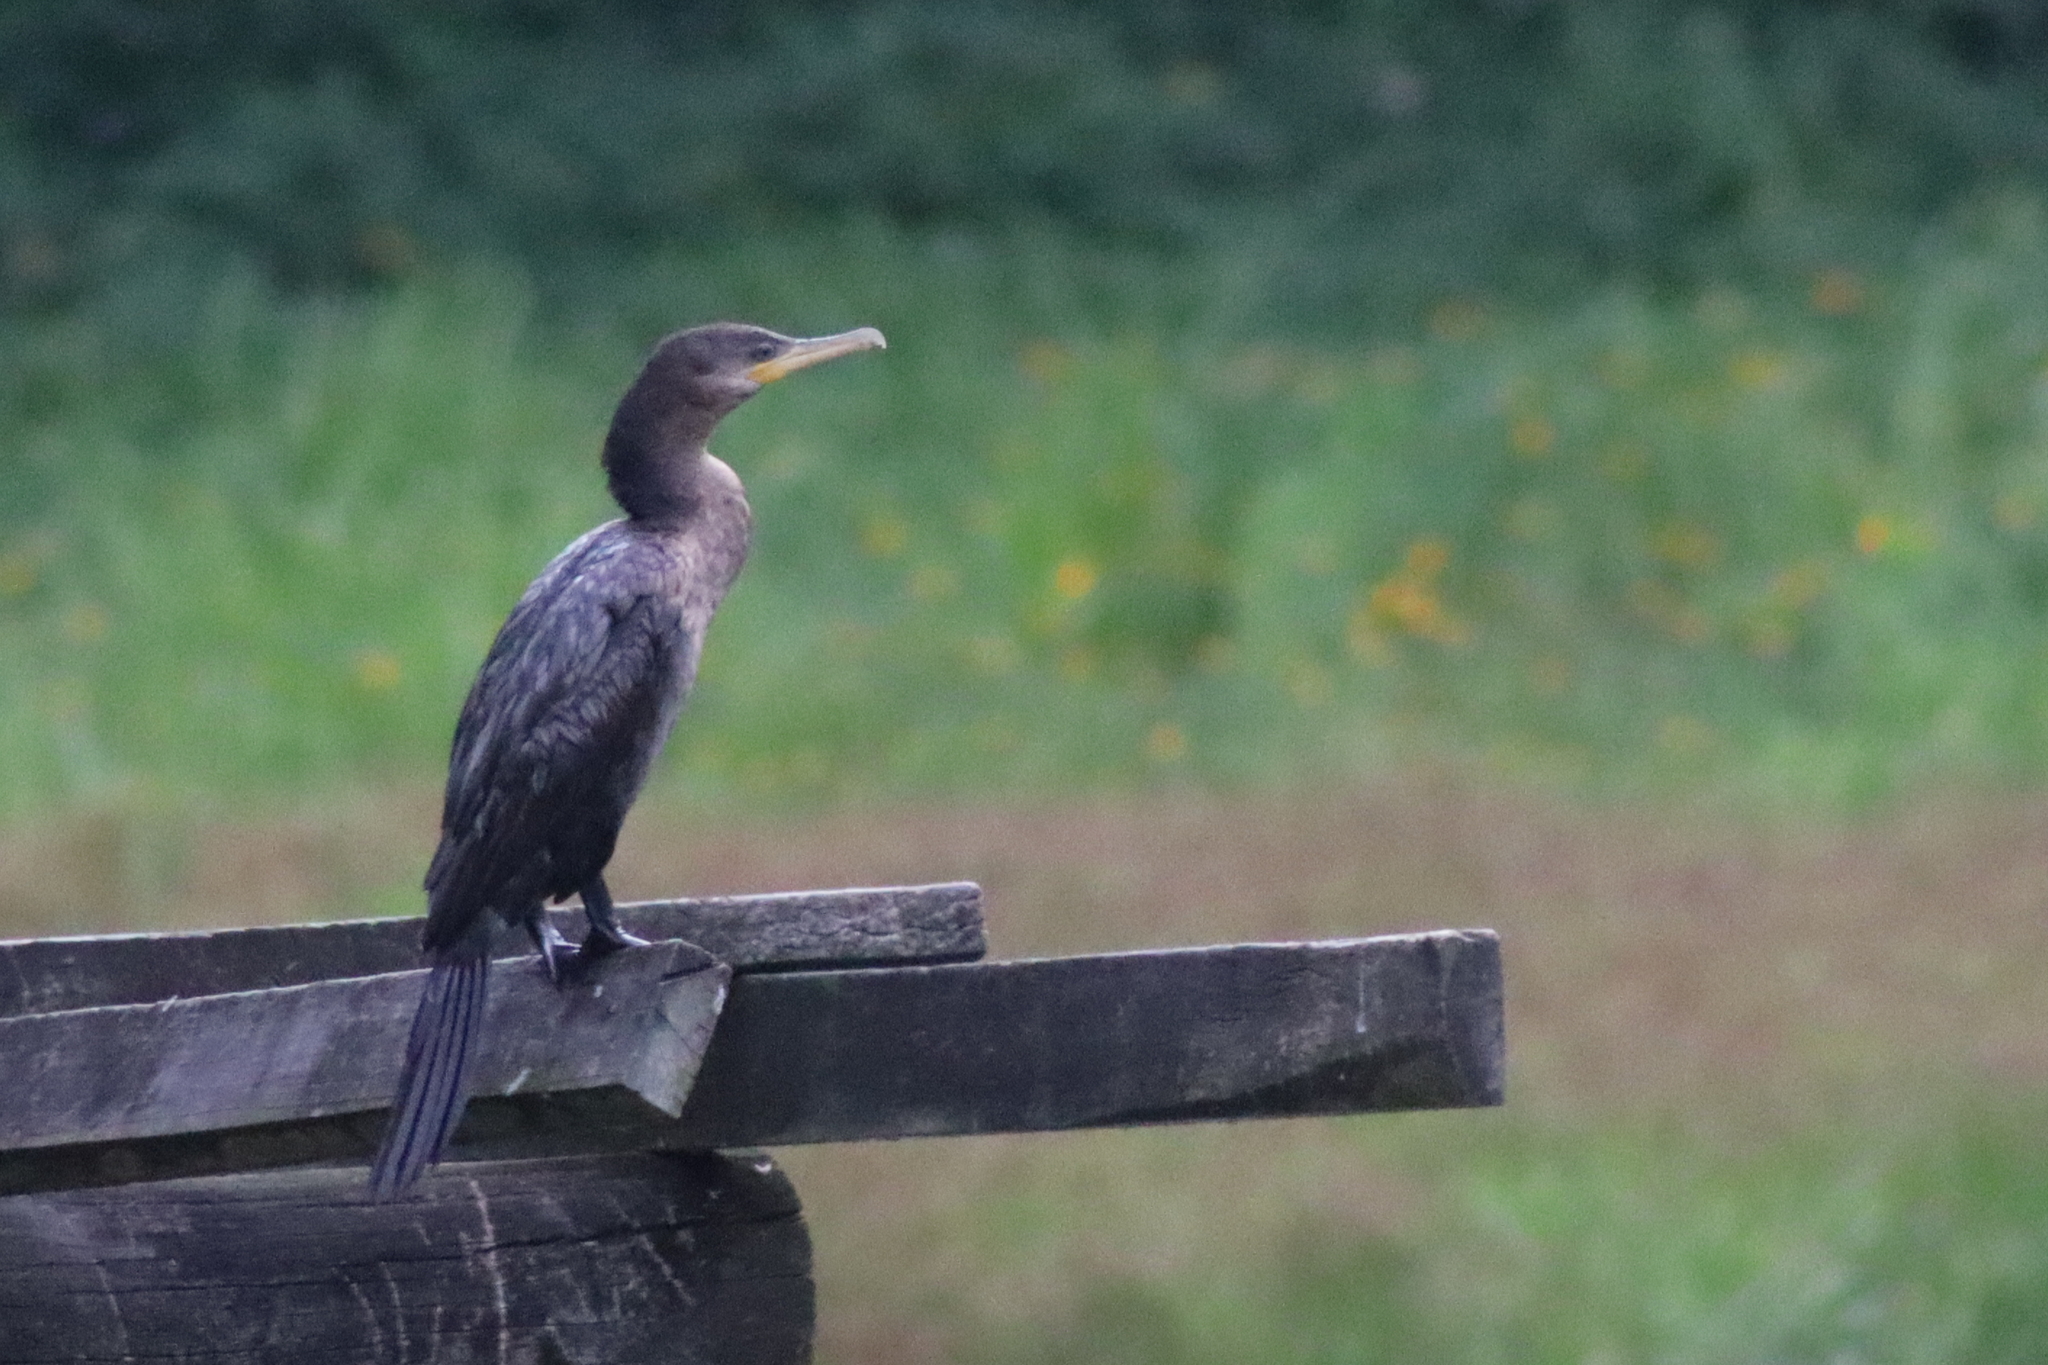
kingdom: Animalia
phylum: Chordata
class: Aves
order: Suliformes
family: Phalacrocoracidae
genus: Phalacrocorax
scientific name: Phalacrocorax brasilianus
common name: Neotropic cormorant
